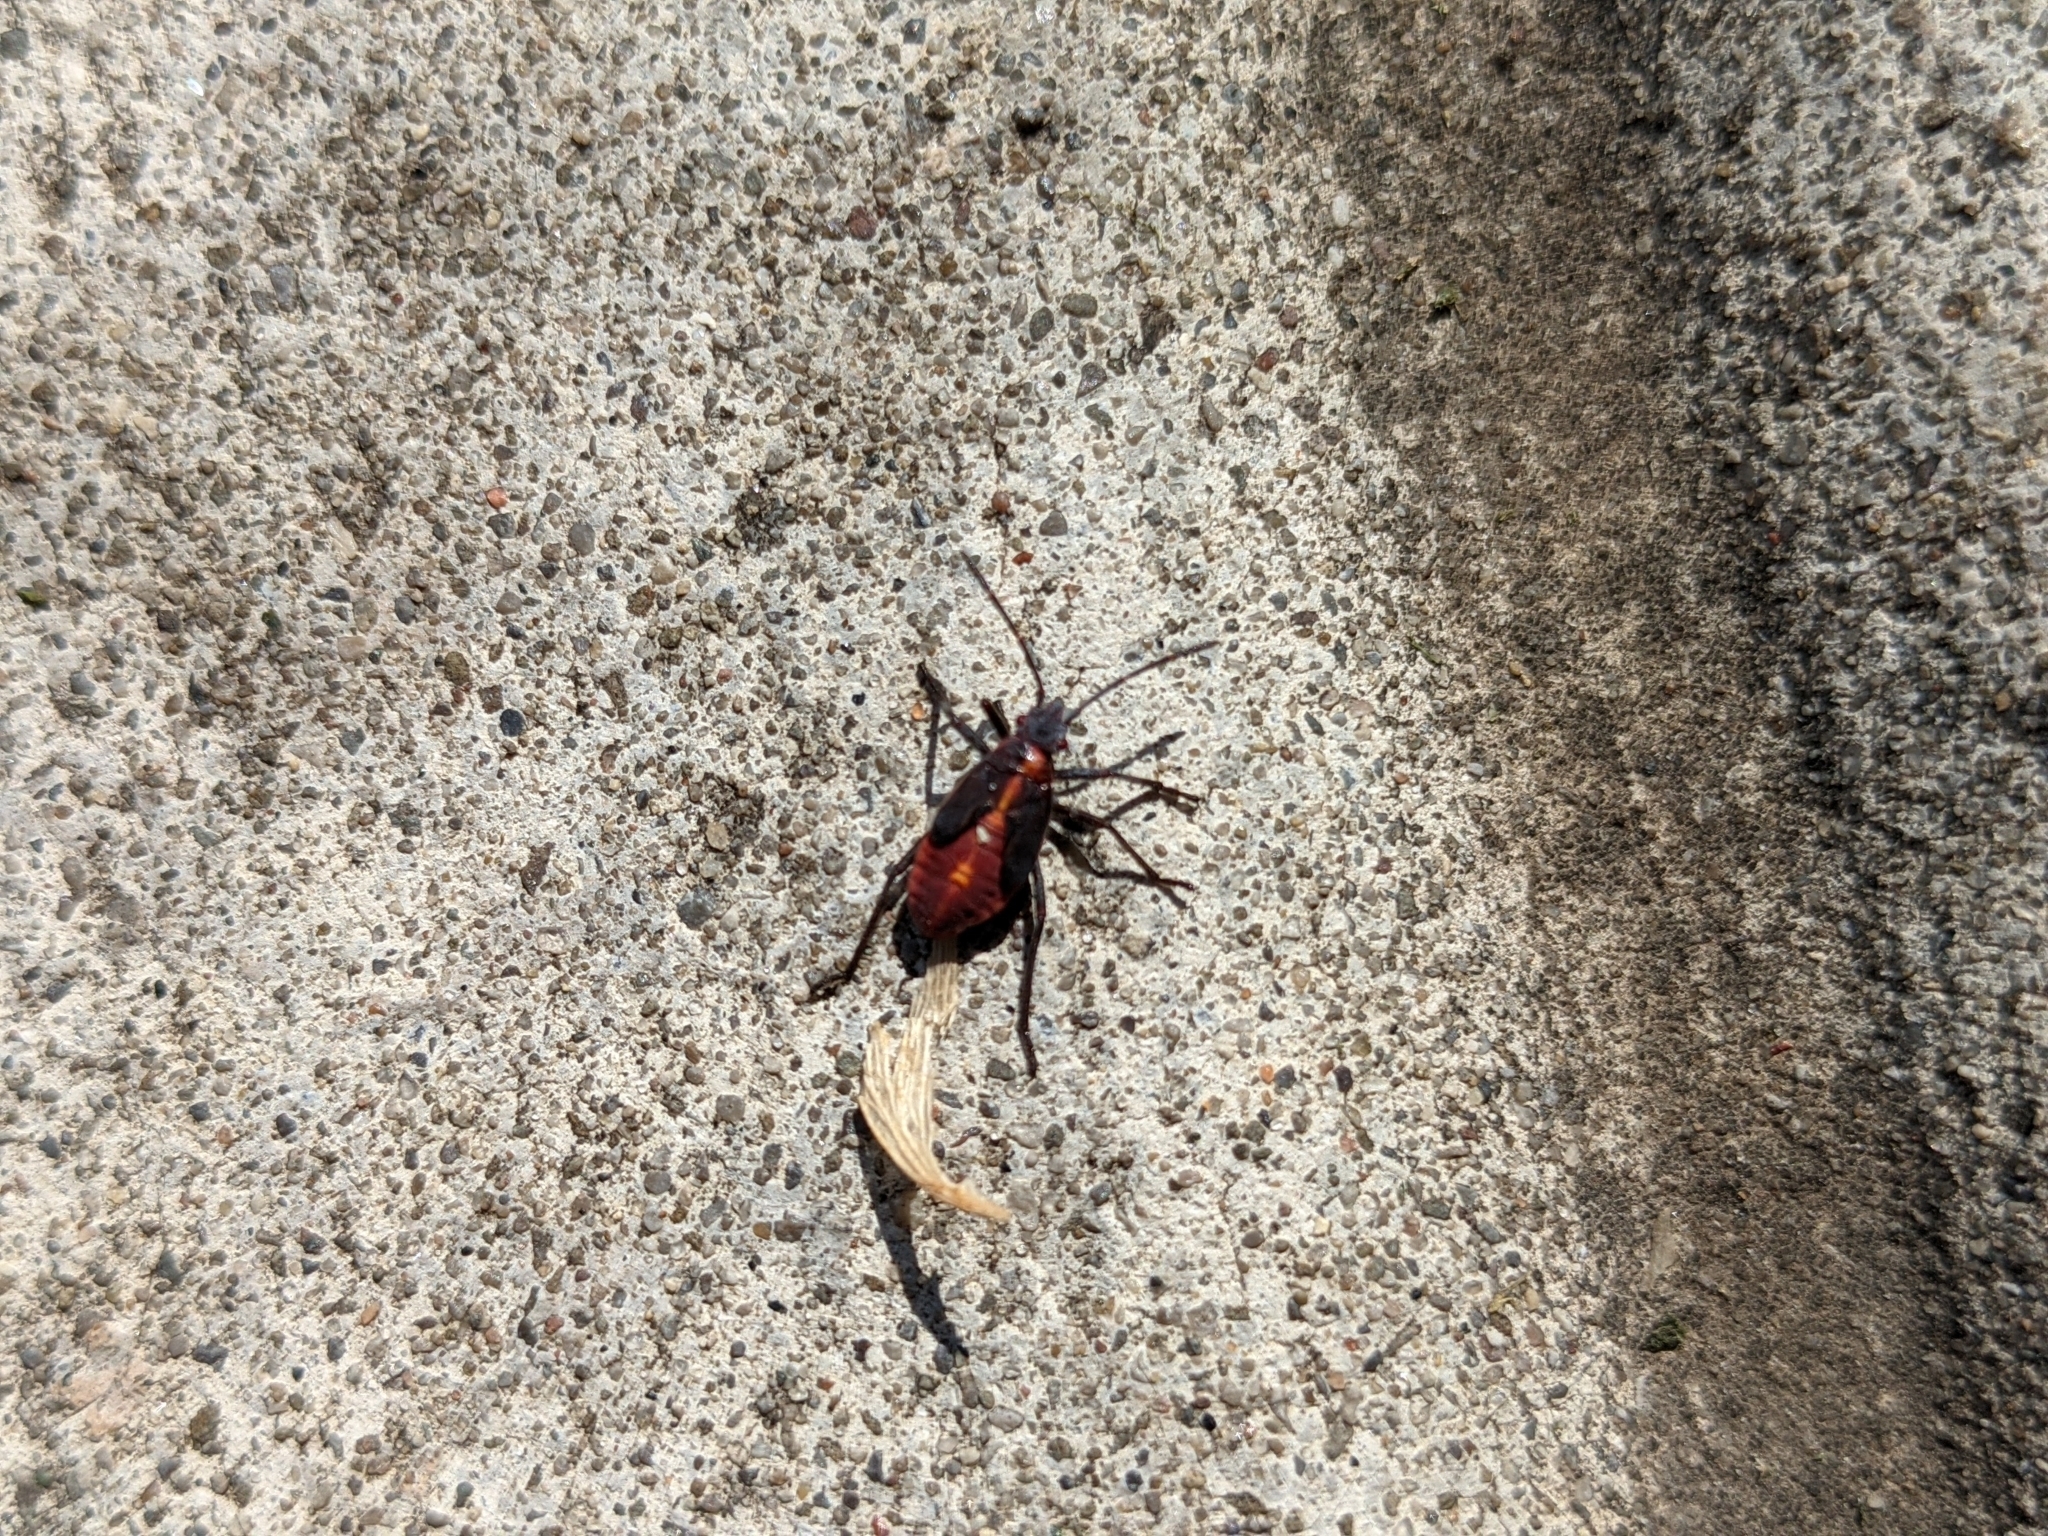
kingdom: Animalia
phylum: Arthropoda
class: Insecta
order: Hemiptera
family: Rhopalidae
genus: Boisea
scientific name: Boisea trivittata
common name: Boxelder bug
